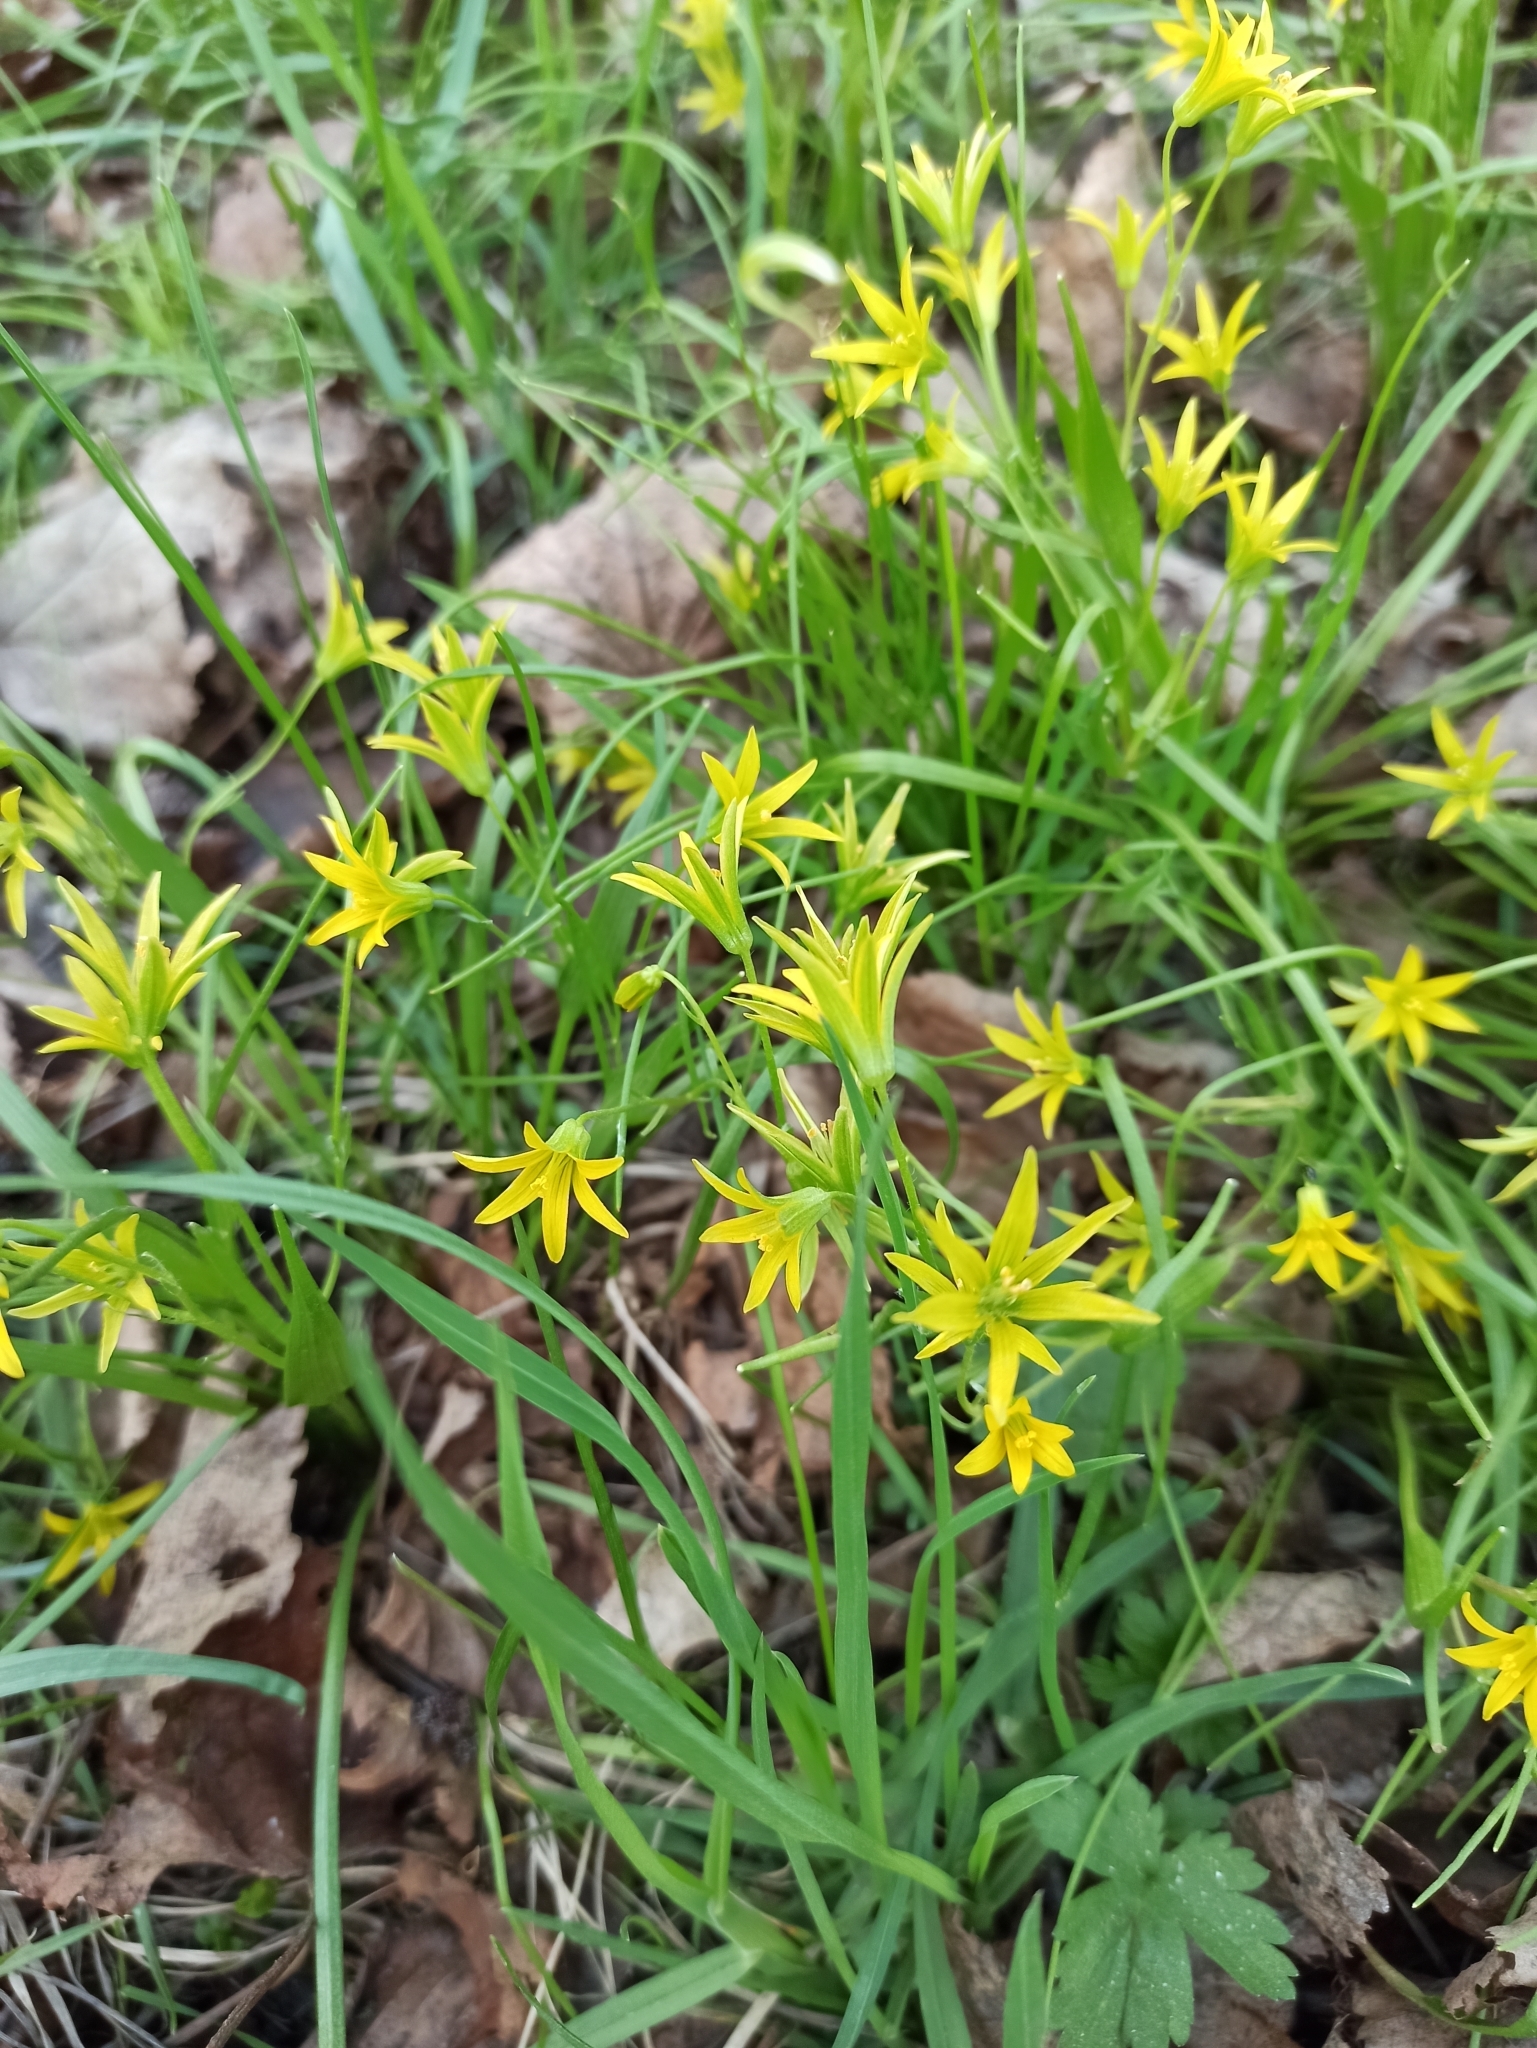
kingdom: Plantae
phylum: Tracheophyta
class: Liliopsida
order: Liliales
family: Liliaceae
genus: Gagea
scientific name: Gagea minima
